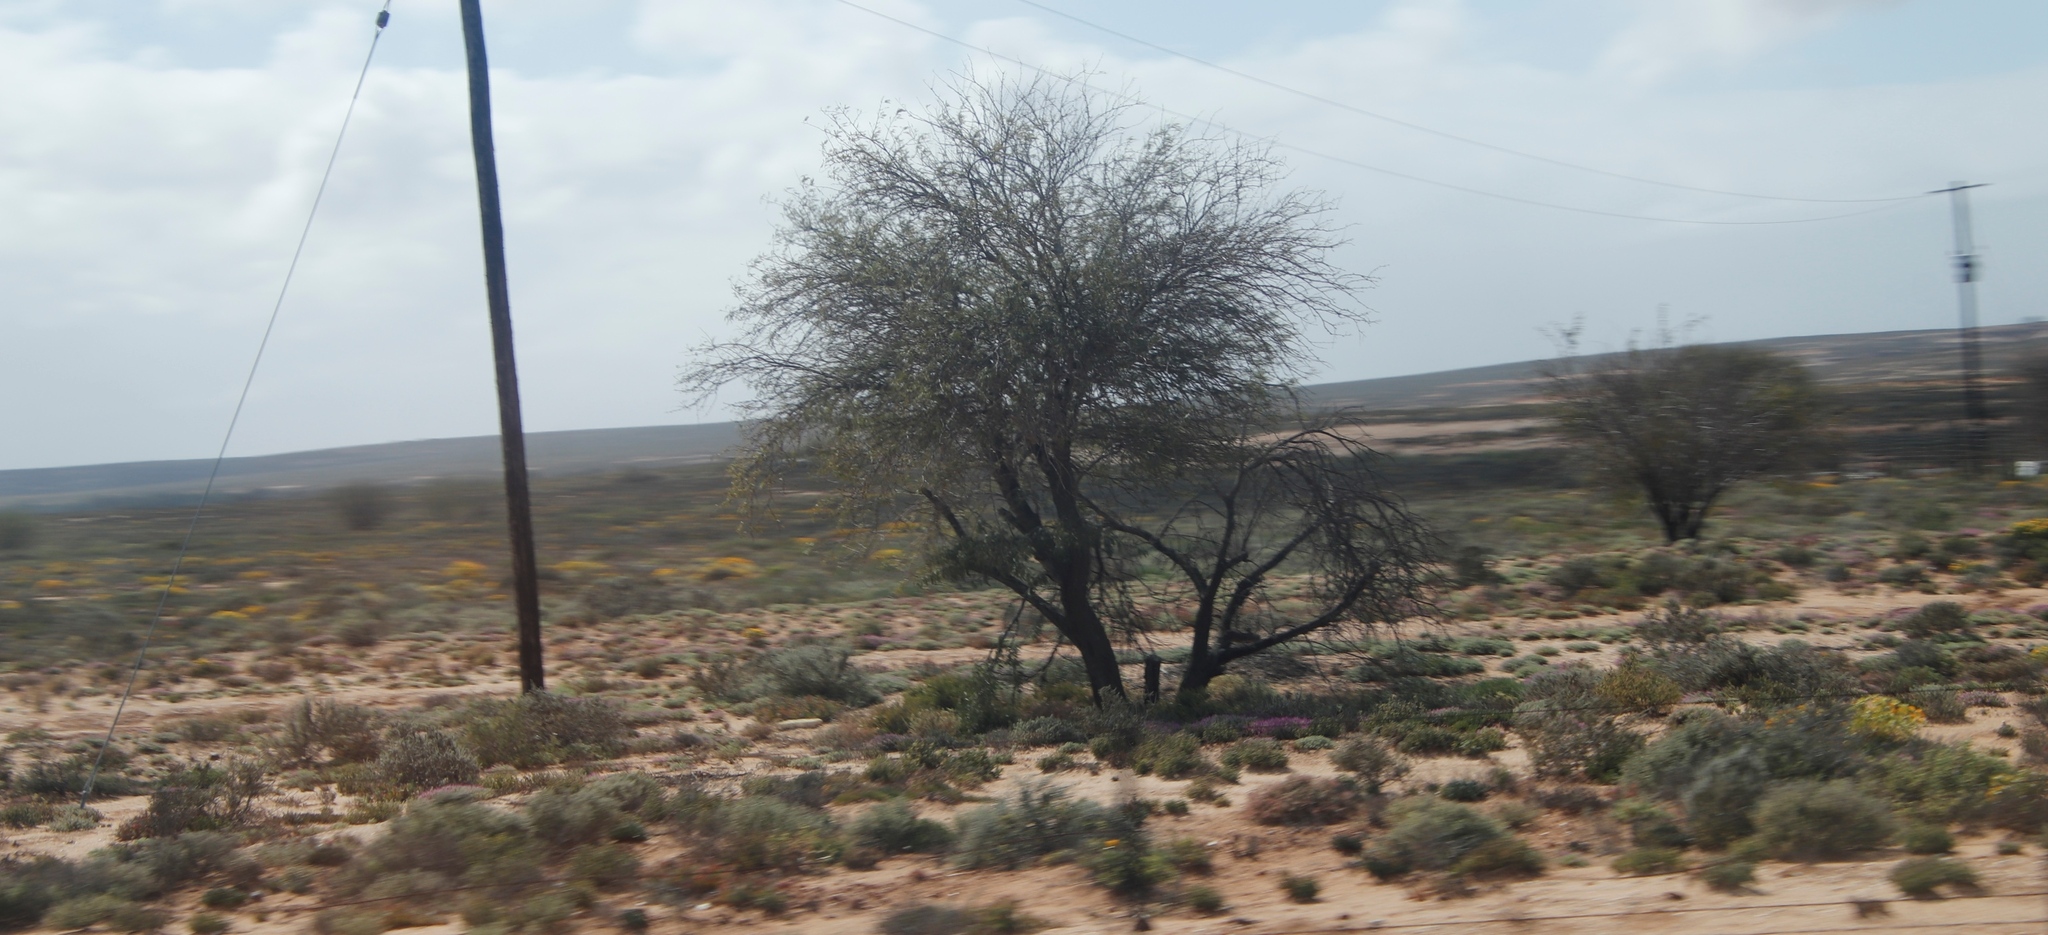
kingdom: Plantae
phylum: Tracheophyta
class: Magnoliopsida
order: Fabales
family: Fabaceae
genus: Vachellia
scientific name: Vachellia karroo
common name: Sweet thorn
